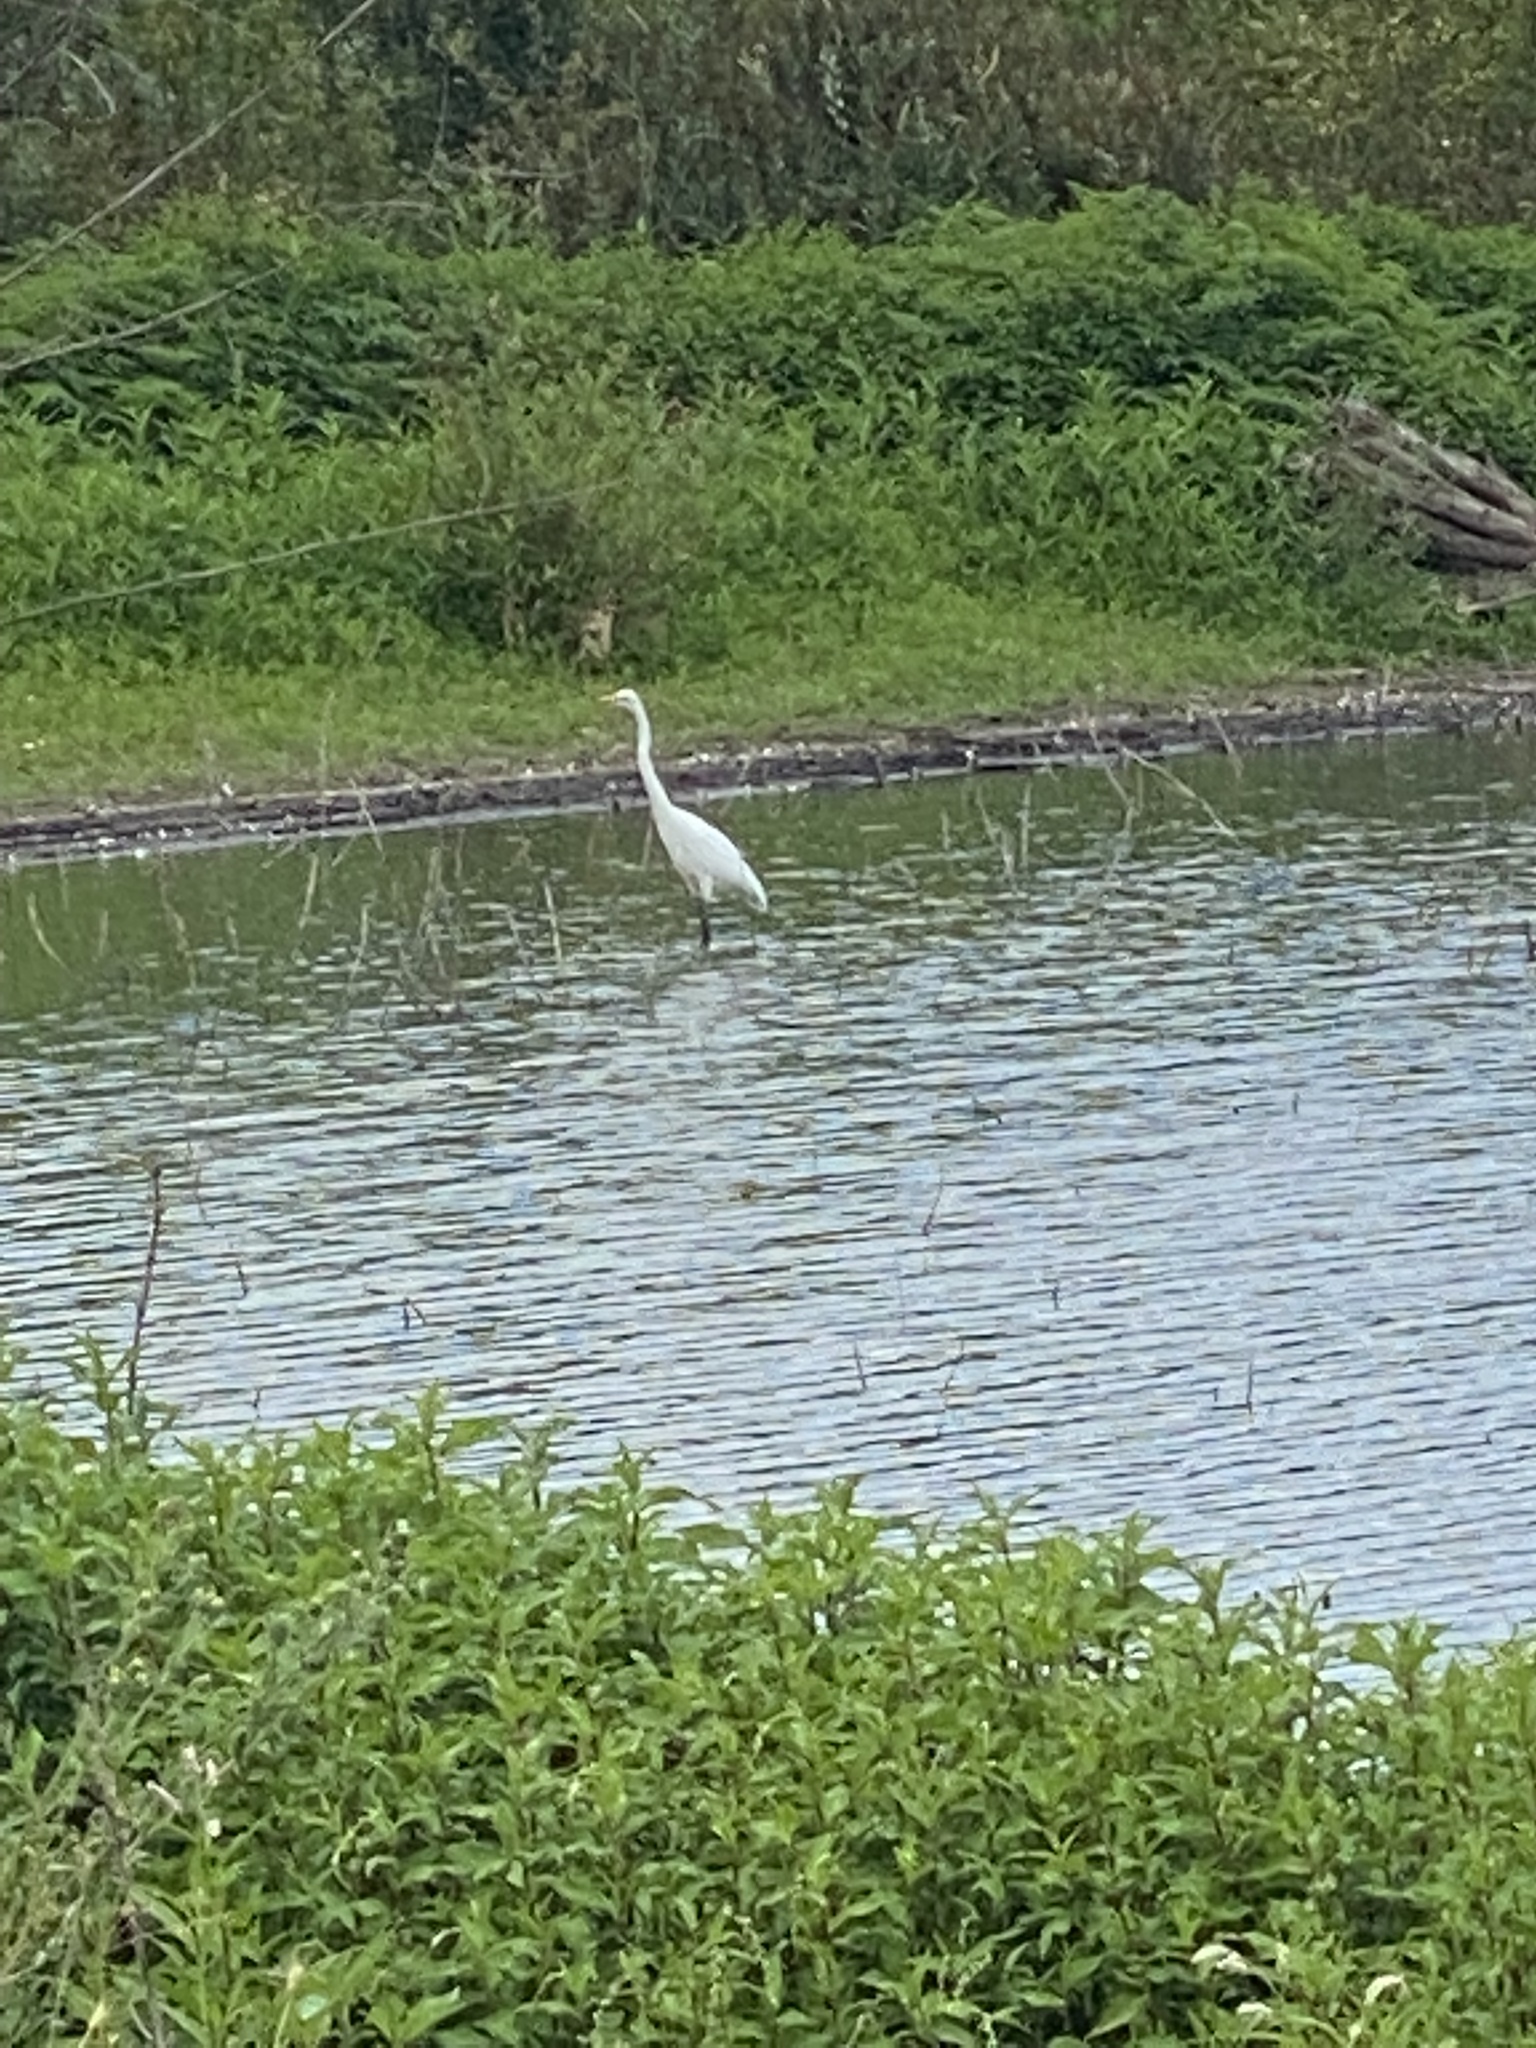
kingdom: Animalia
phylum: Chordata
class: Aves
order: Pelecaniformes
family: Ardeidae
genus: Ardea
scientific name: Ardea alba
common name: Great egret
